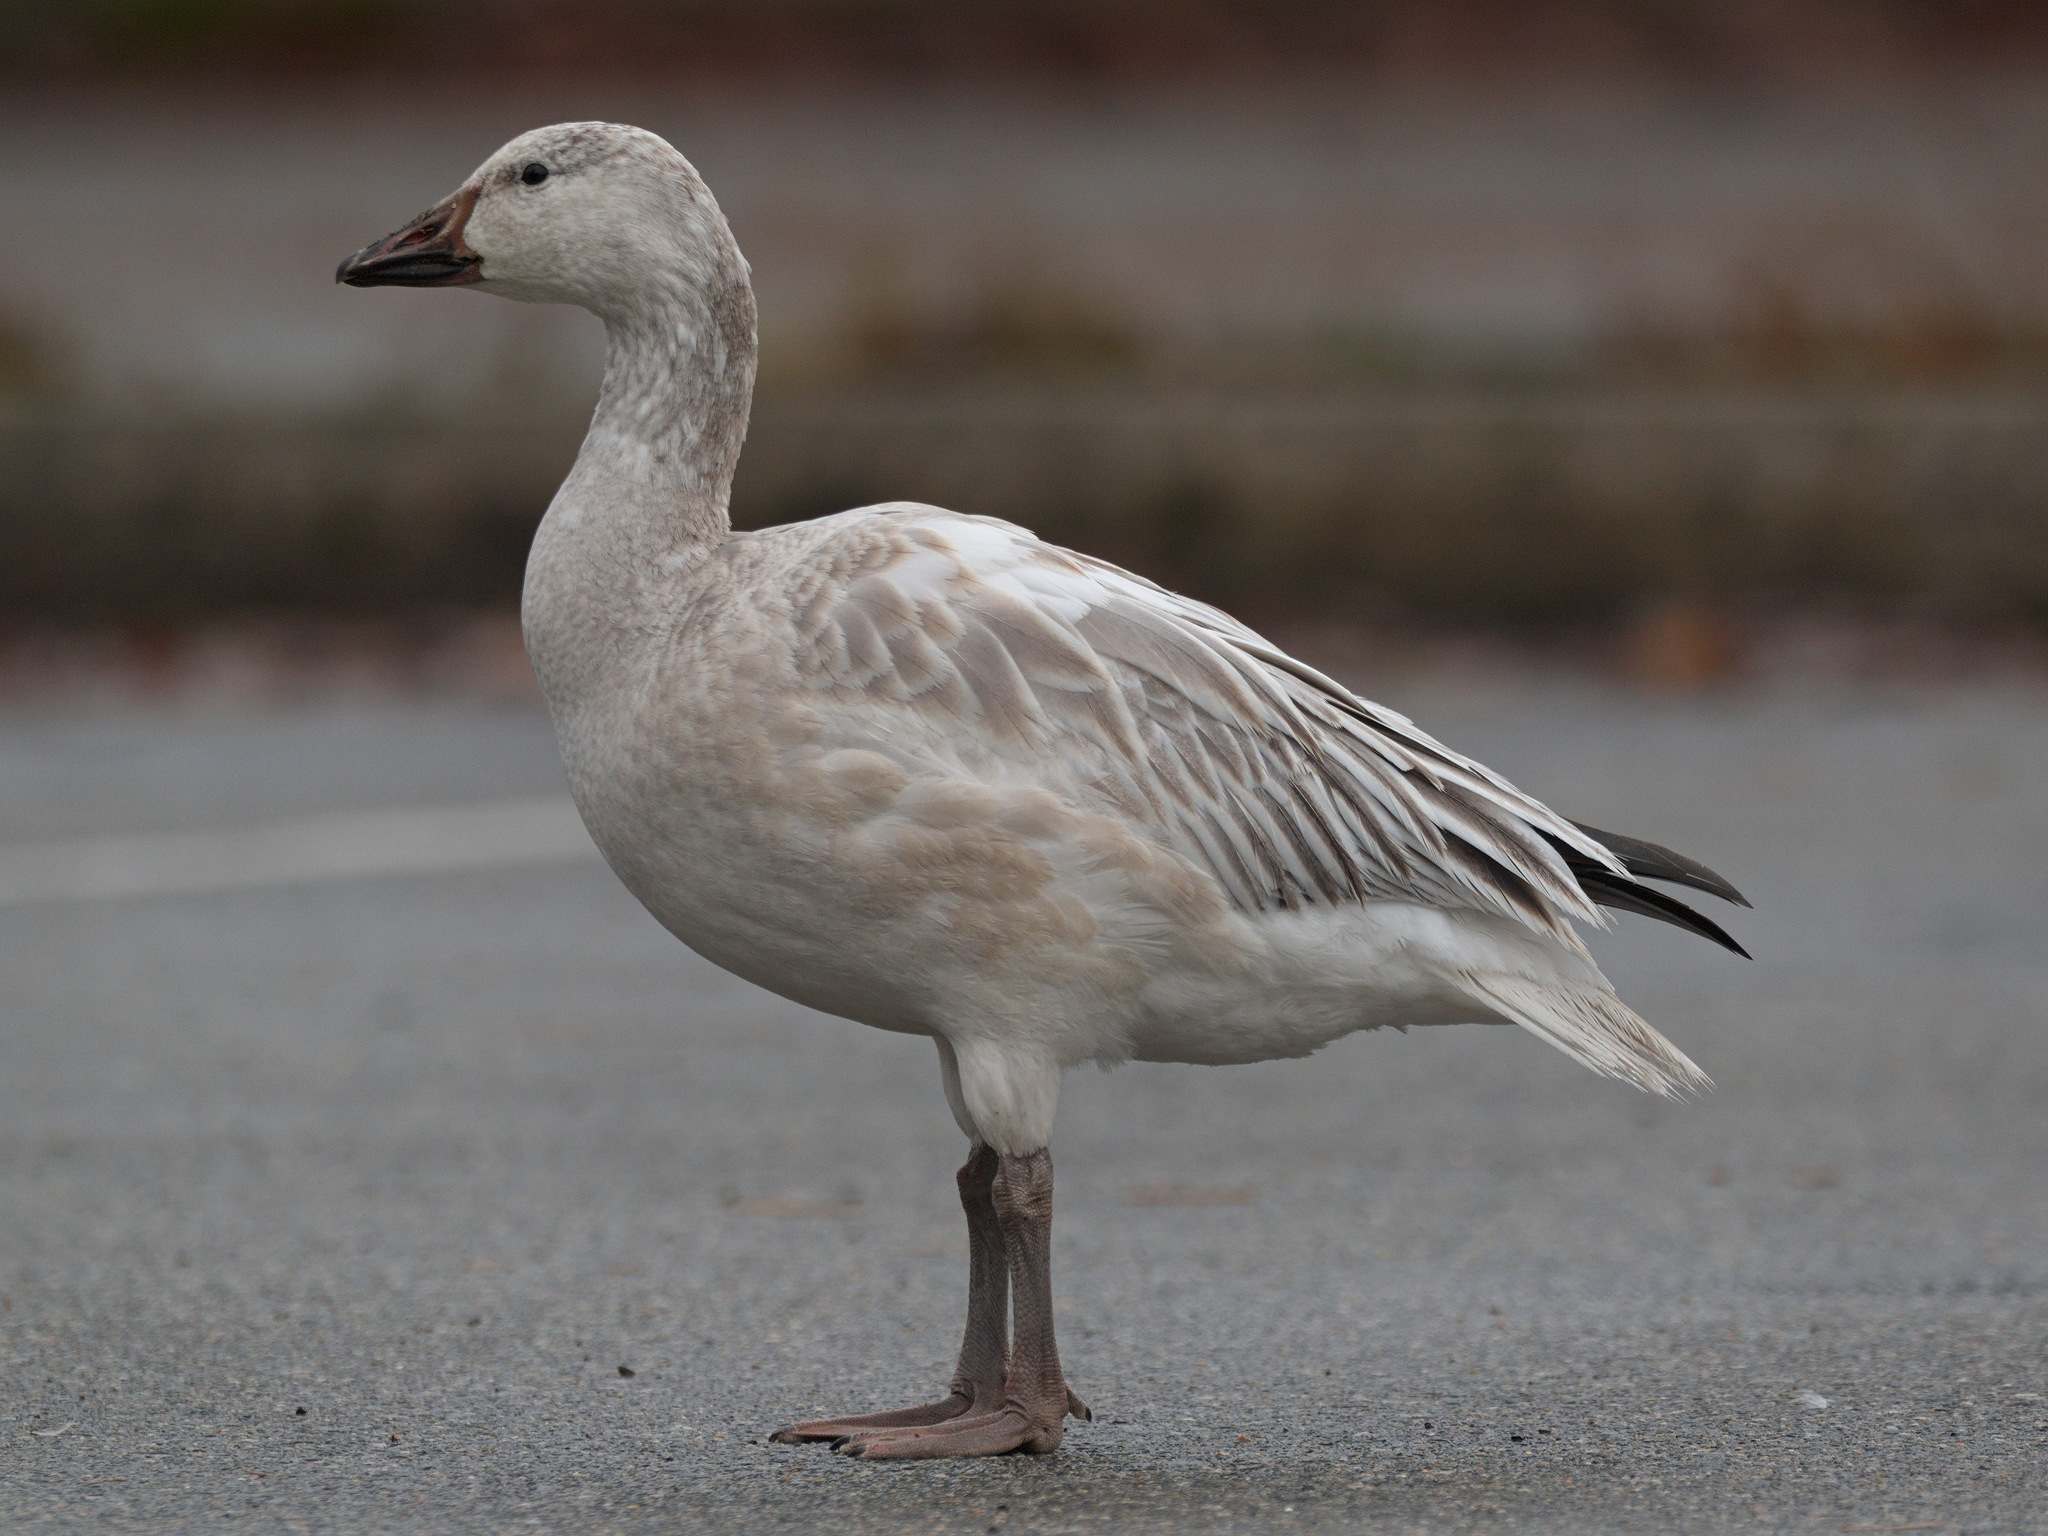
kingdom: Animalia
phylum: Chordata
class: Aves
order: Anseriformes
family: Anatidae
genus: Anser
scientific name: Anser caerulescens
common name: Snow goose
